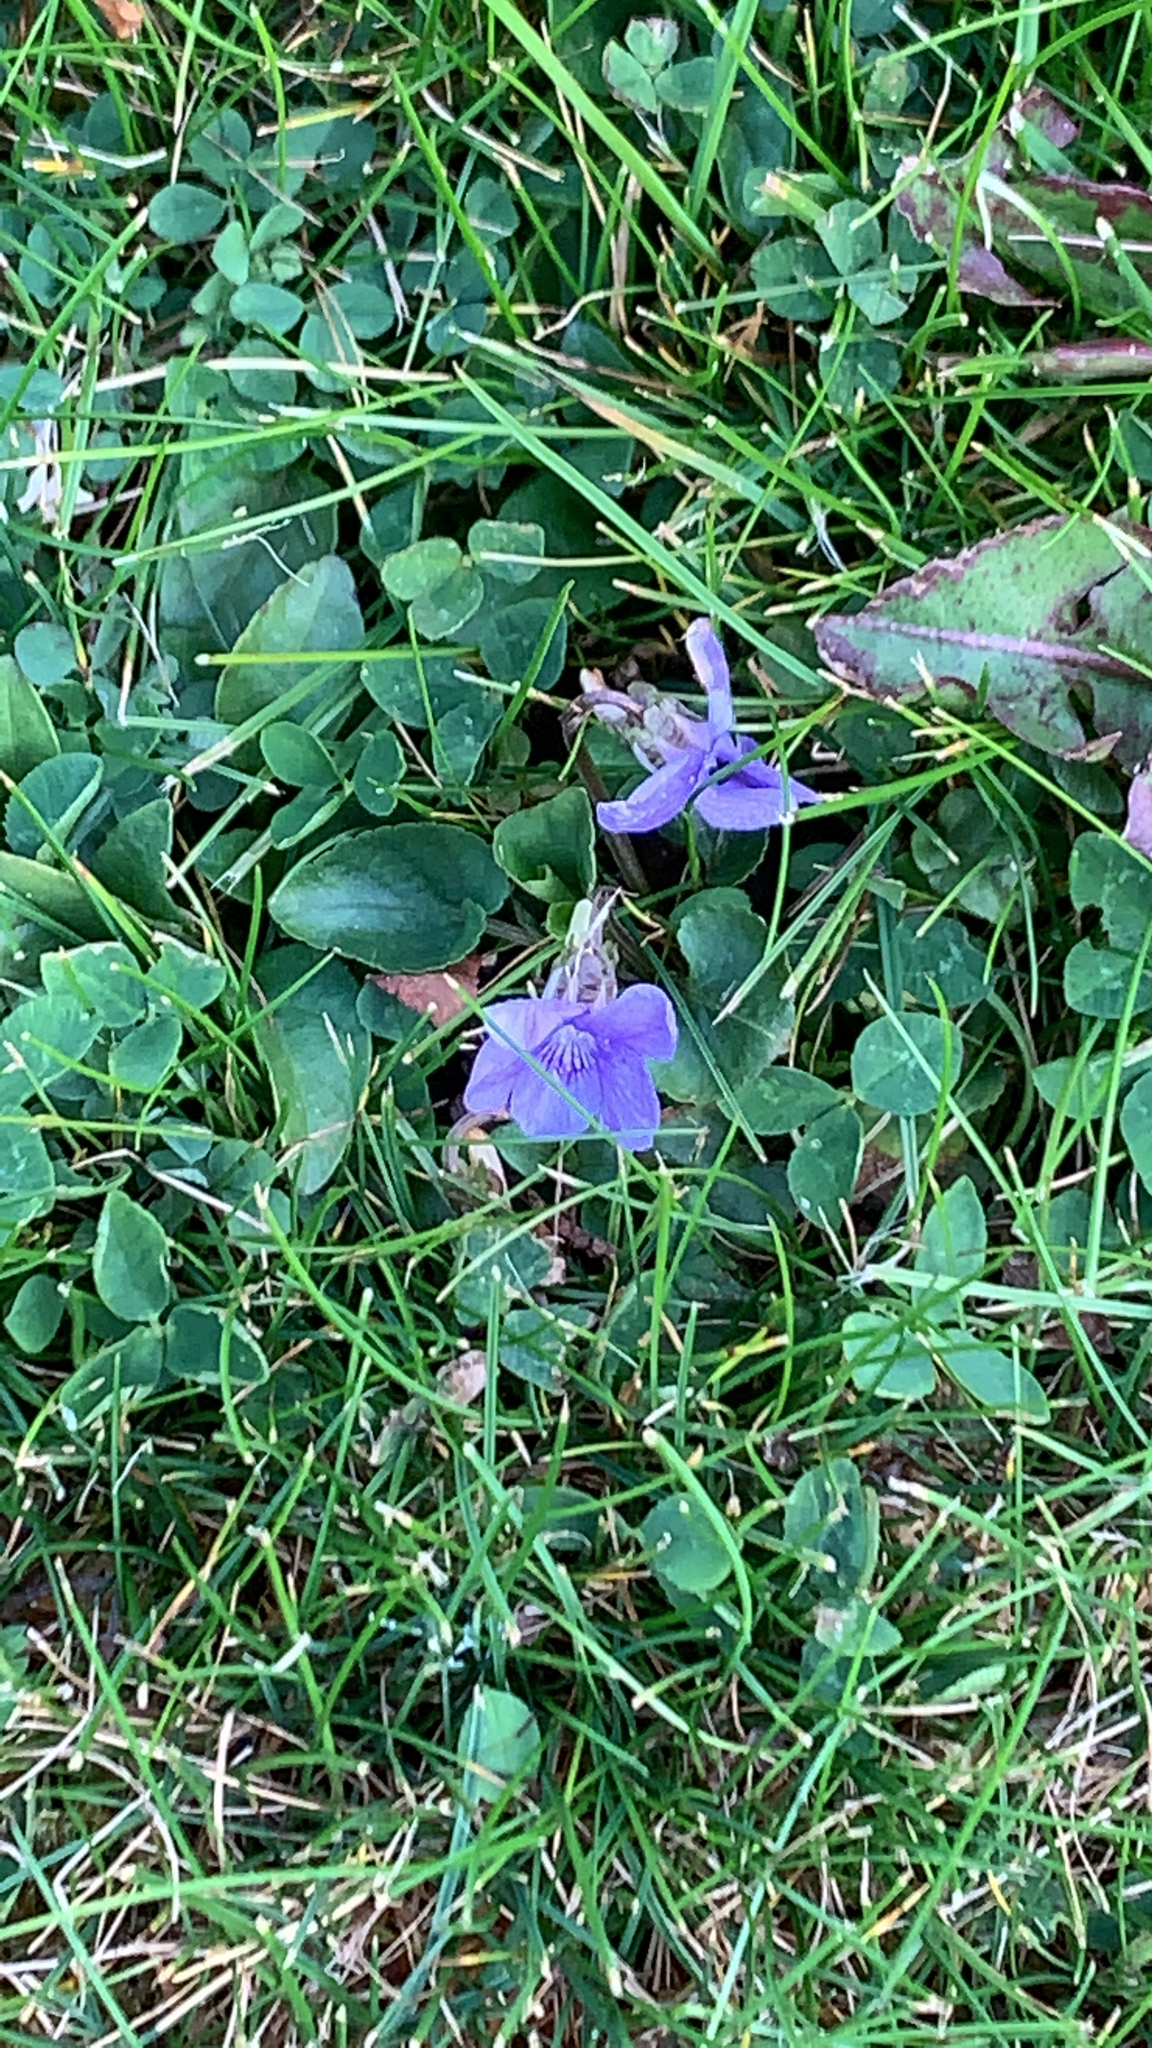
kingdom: Plantae
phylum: Tracheophyta
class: Magnoliopsida
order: Malpighiales
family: Violaceae
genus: Viola
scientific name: Viola riviniana
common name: Common dog-violet
